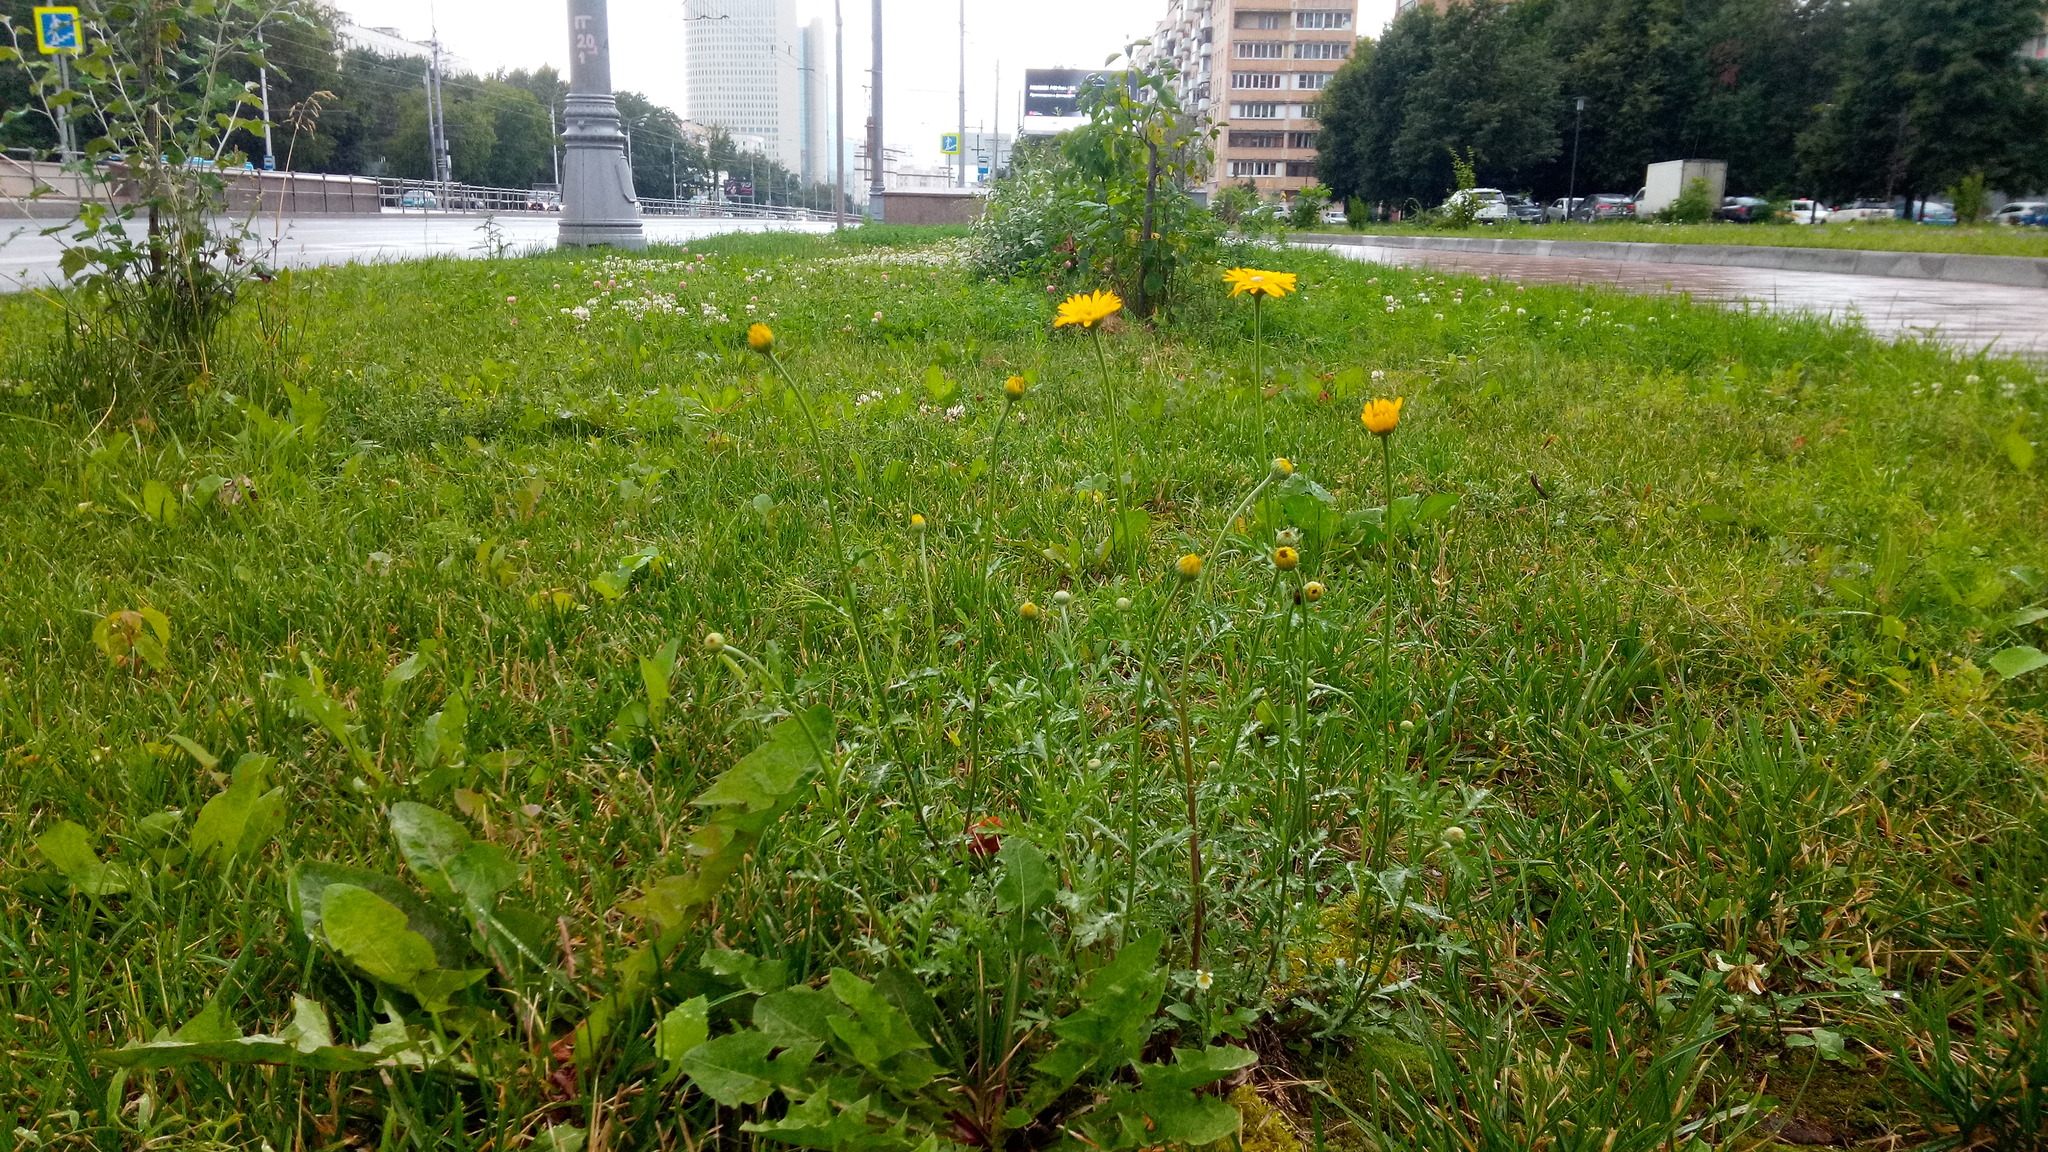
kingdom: Plantae
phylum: Tracheophyta
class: Magnoliopsida
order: Asterales
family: Asteraceae
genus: Cota
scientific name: Cota tinctoria
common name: Golden chamomile
